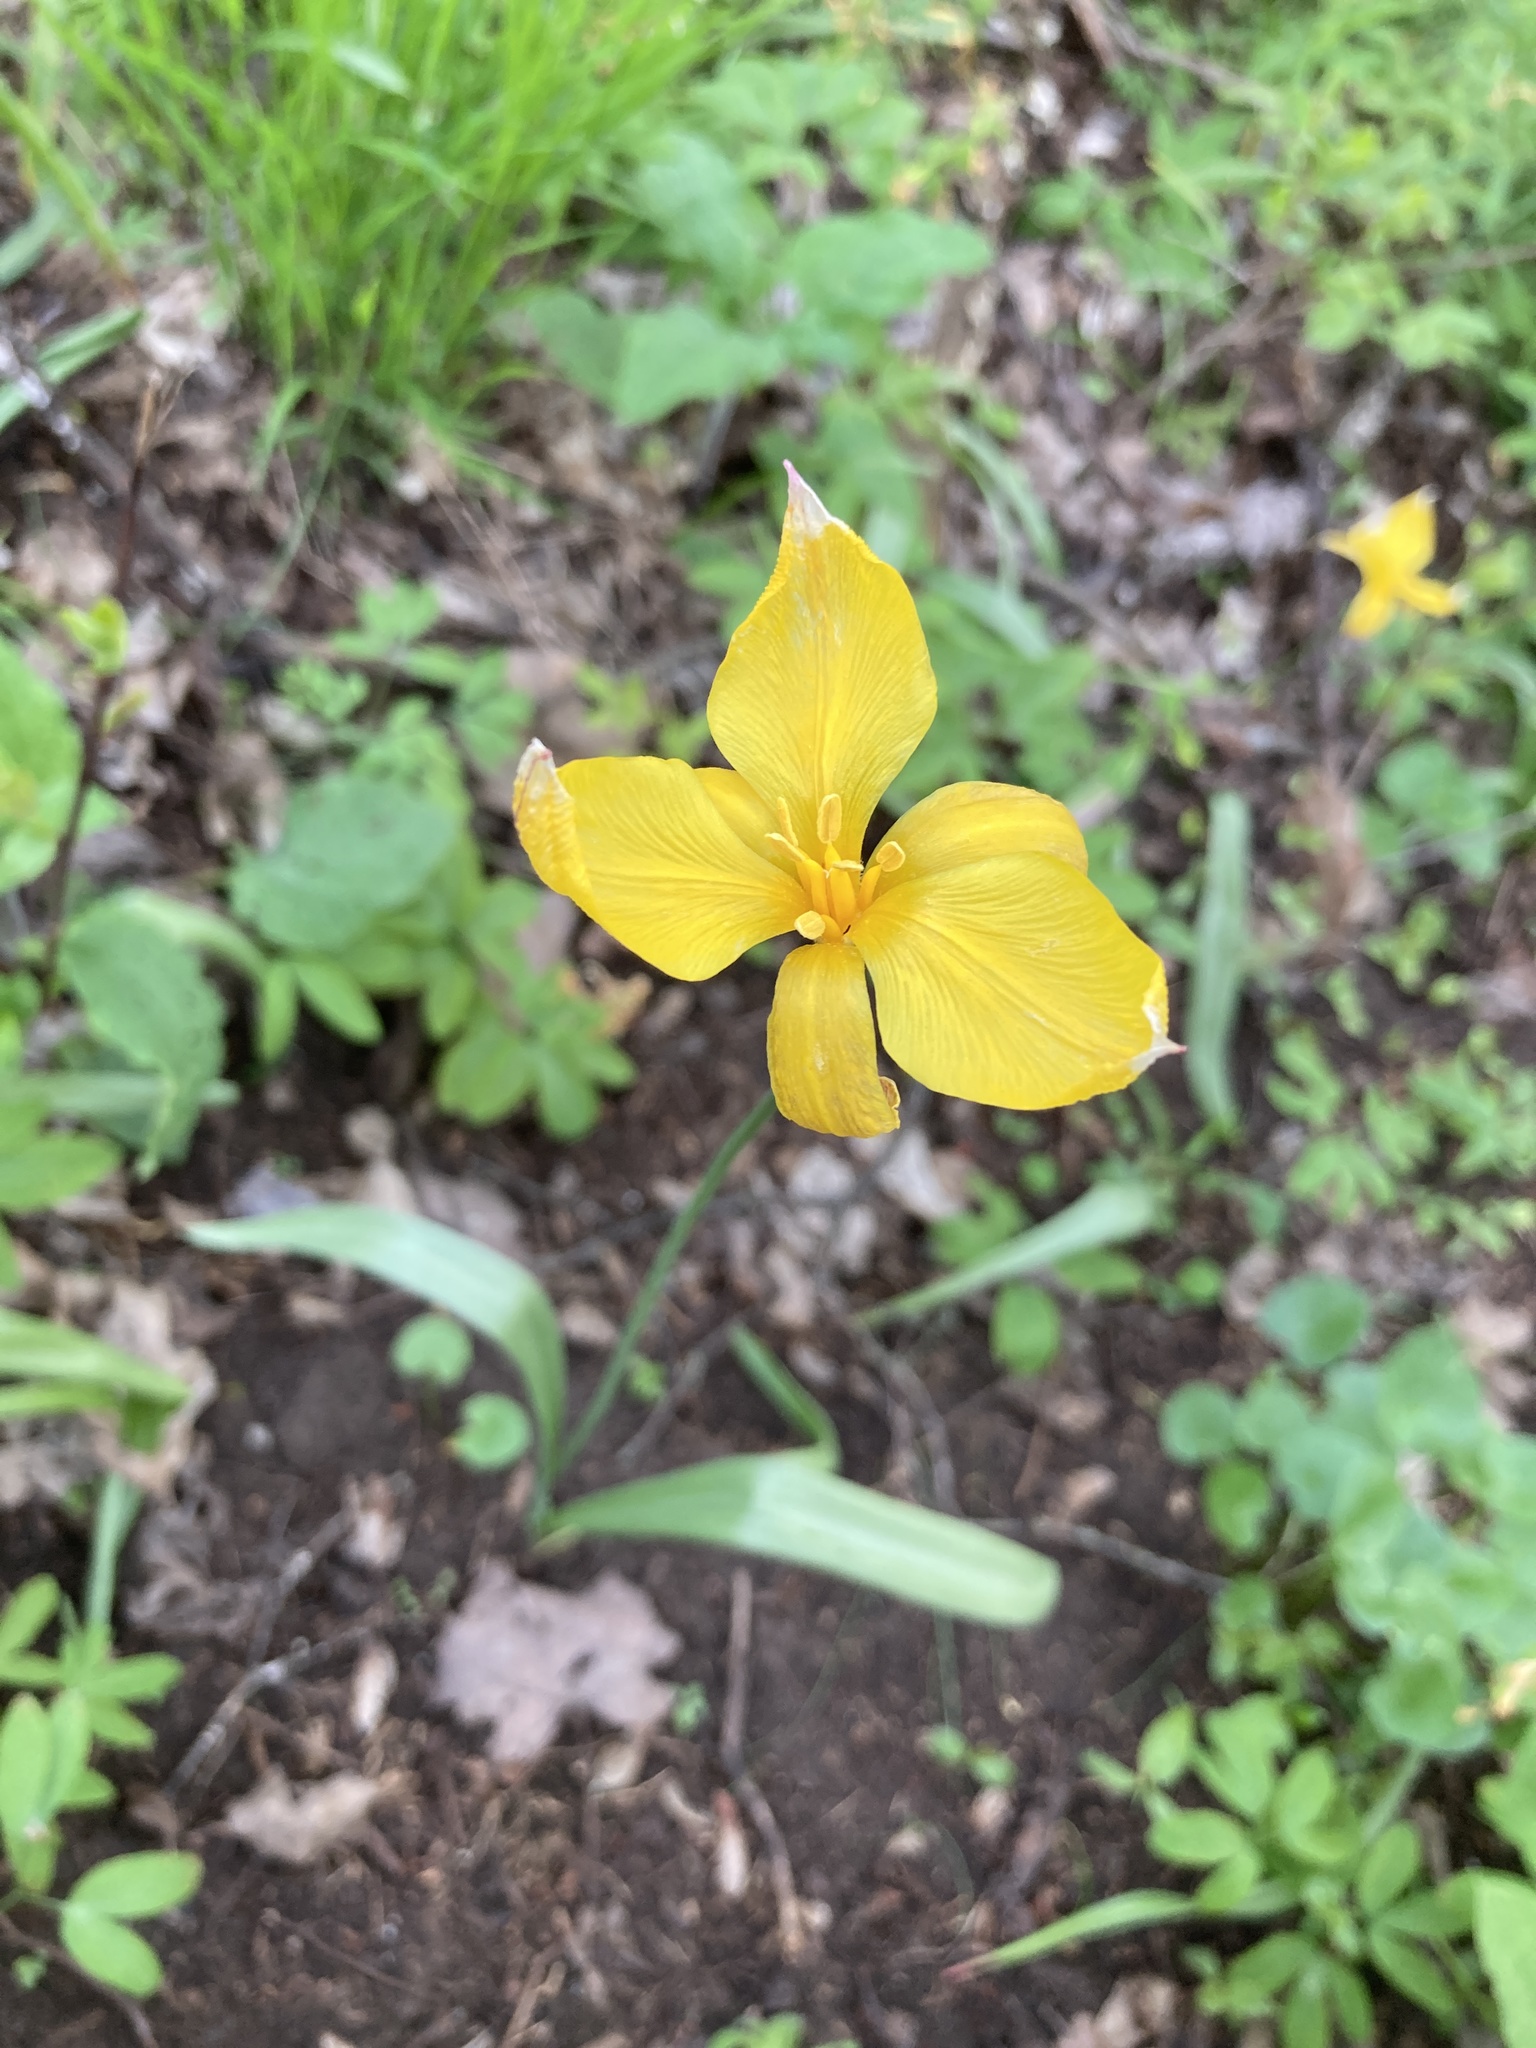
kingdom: Plantae
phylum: Tracheophyta
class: Liliopsida
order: Liliales
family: Liliaceae
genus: Tulipa
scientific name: Tulipa sylvestris
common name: Wild tulip
